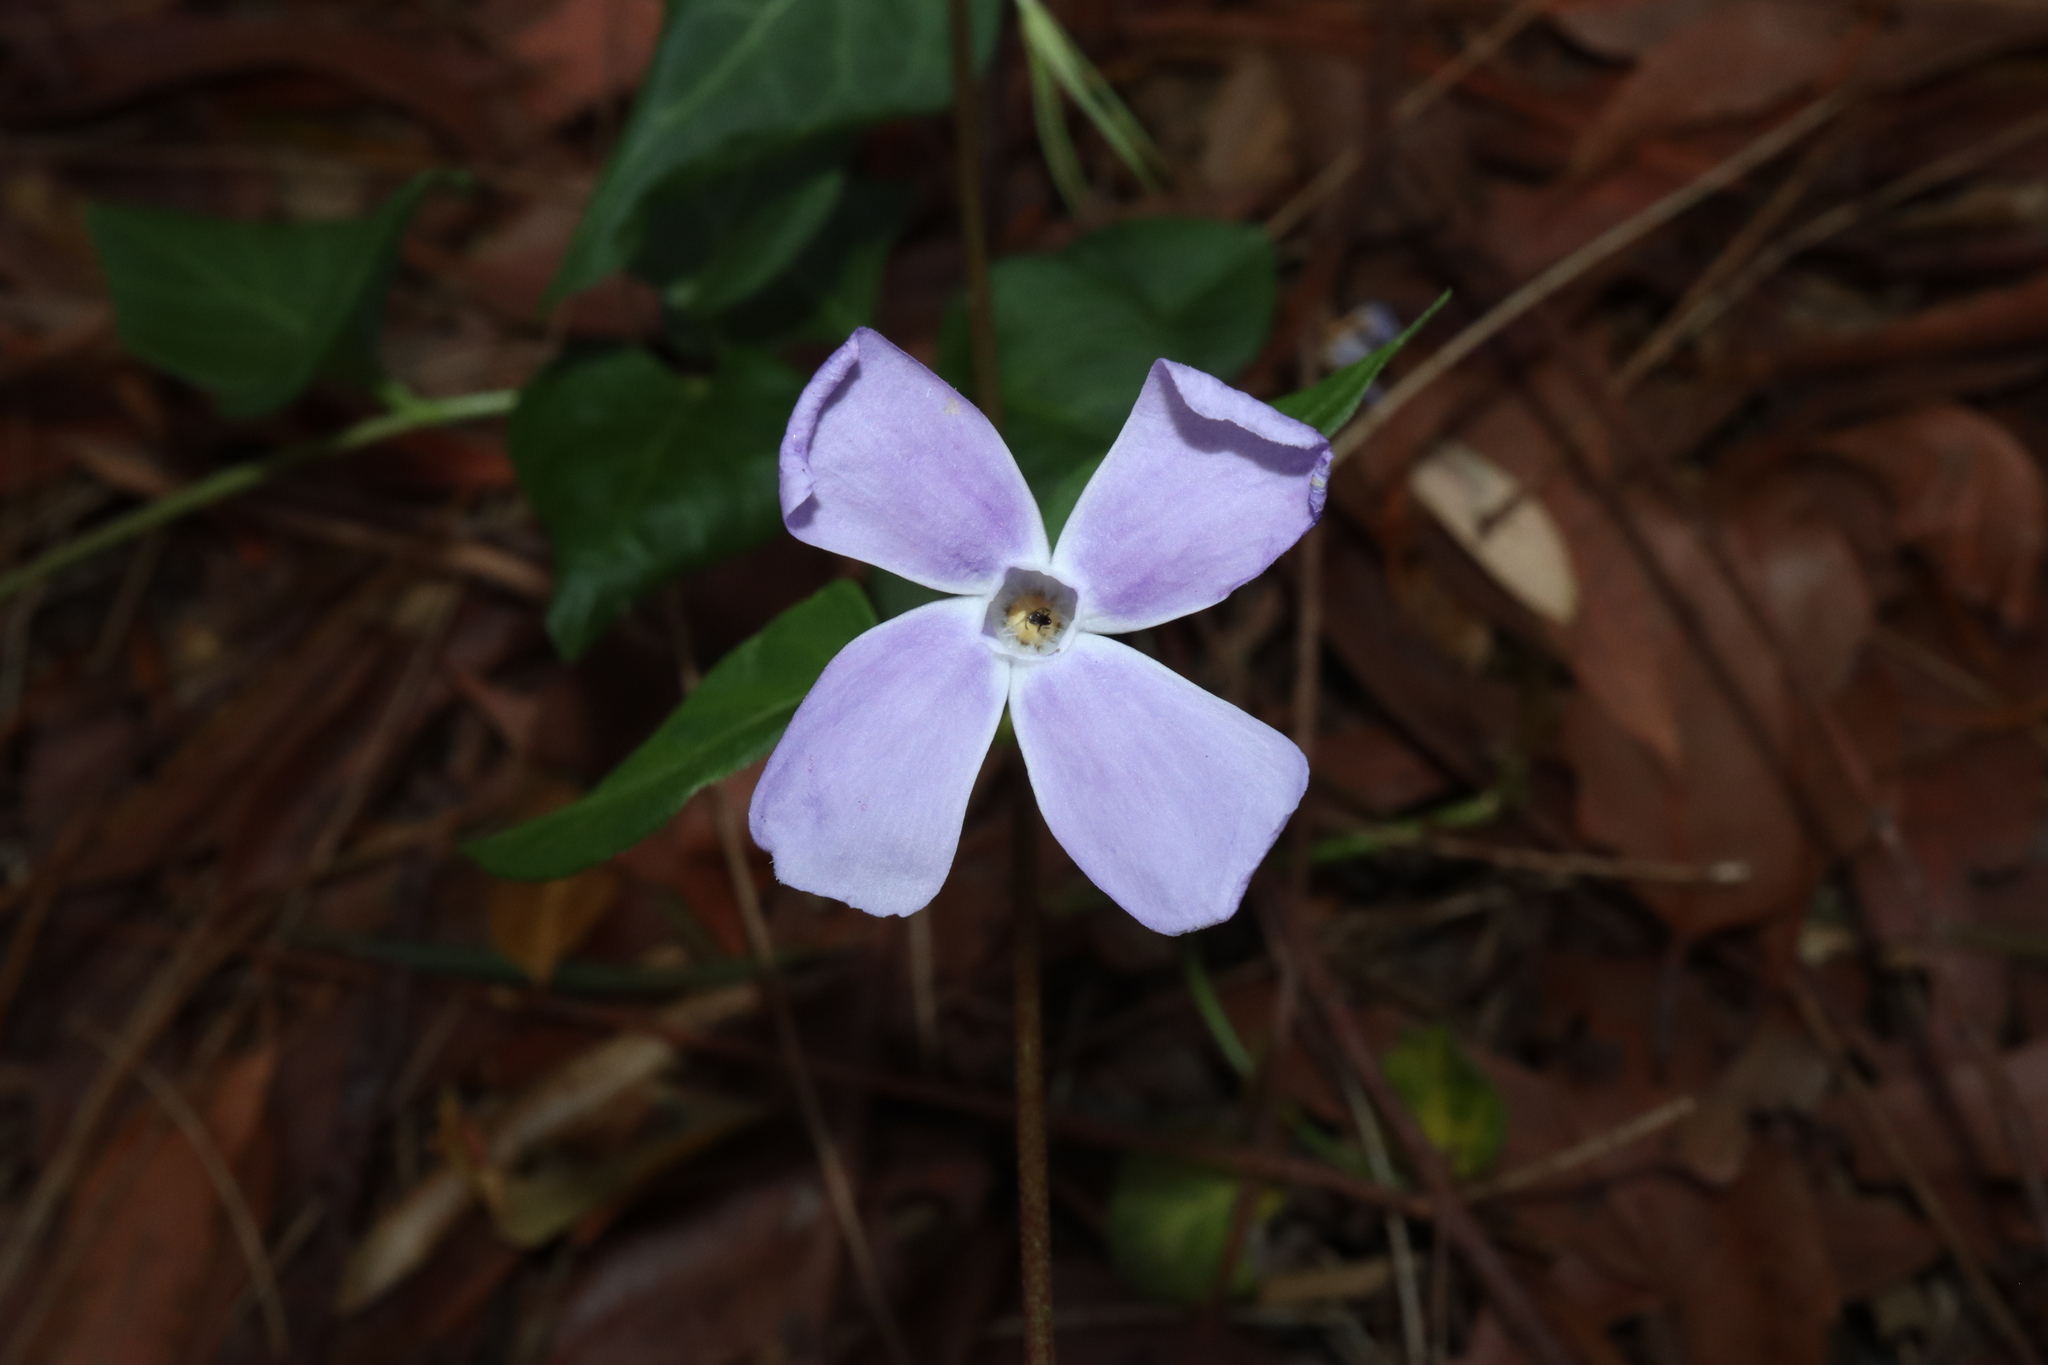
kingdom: Plantae
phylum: Tracheophyta
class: Magnoliopsida
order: Gentianales
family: Apocynaceae
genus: Vinca
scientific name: Vinca major
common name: Greater periwinkle
